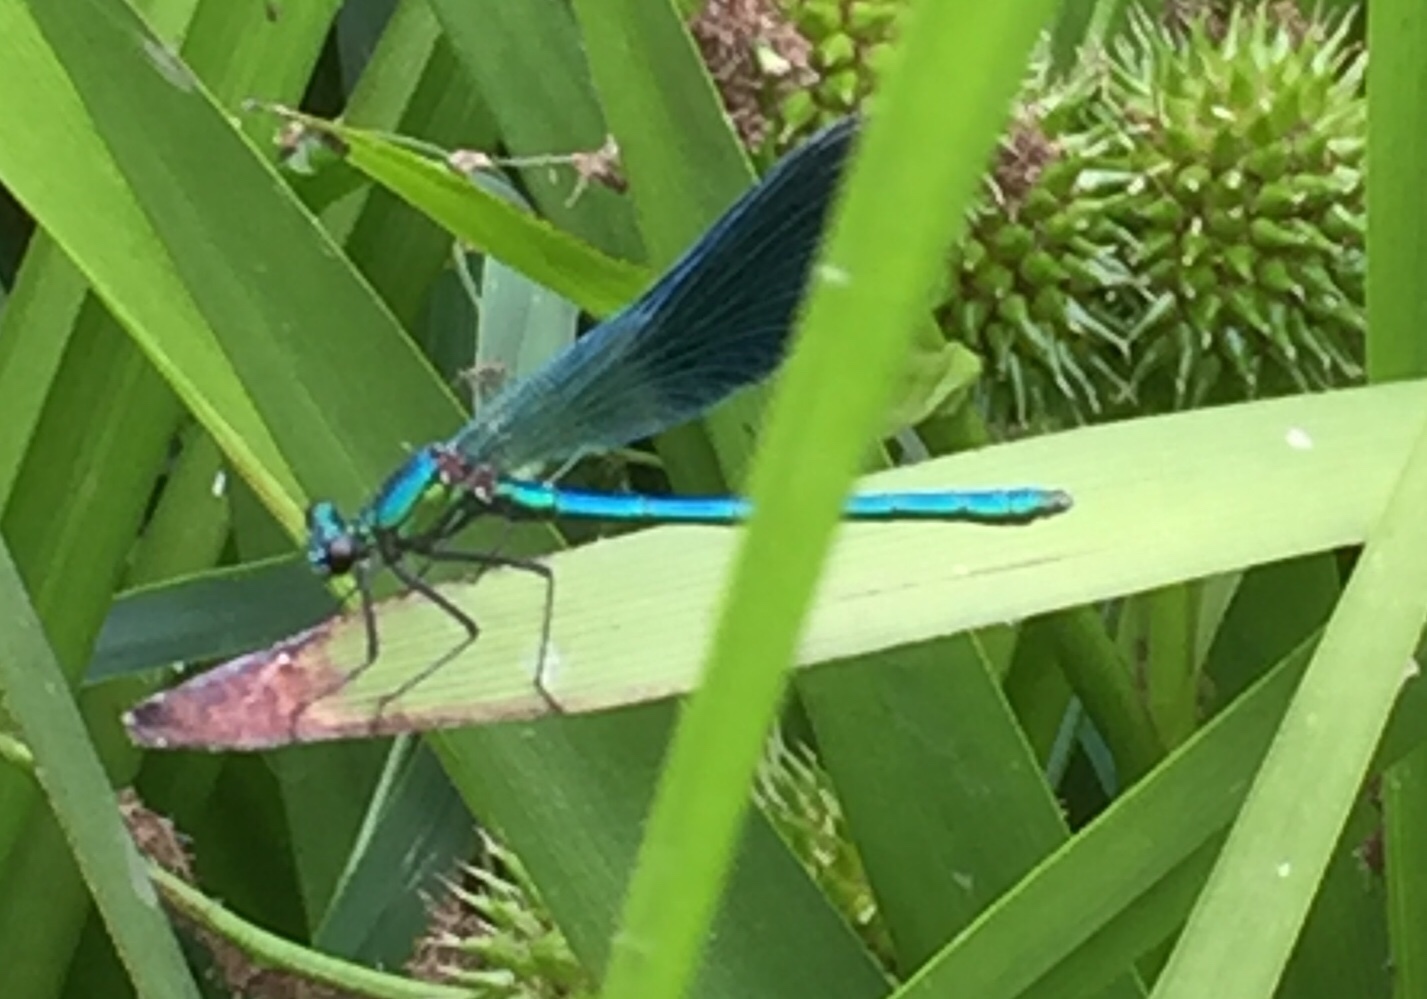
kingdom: Animalia
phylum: Arthropoda
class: Insecta
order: Odonata
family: Calopterygidae
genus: Calopteryx
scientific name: Calopteryx splendens
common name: Banded demoiselle
